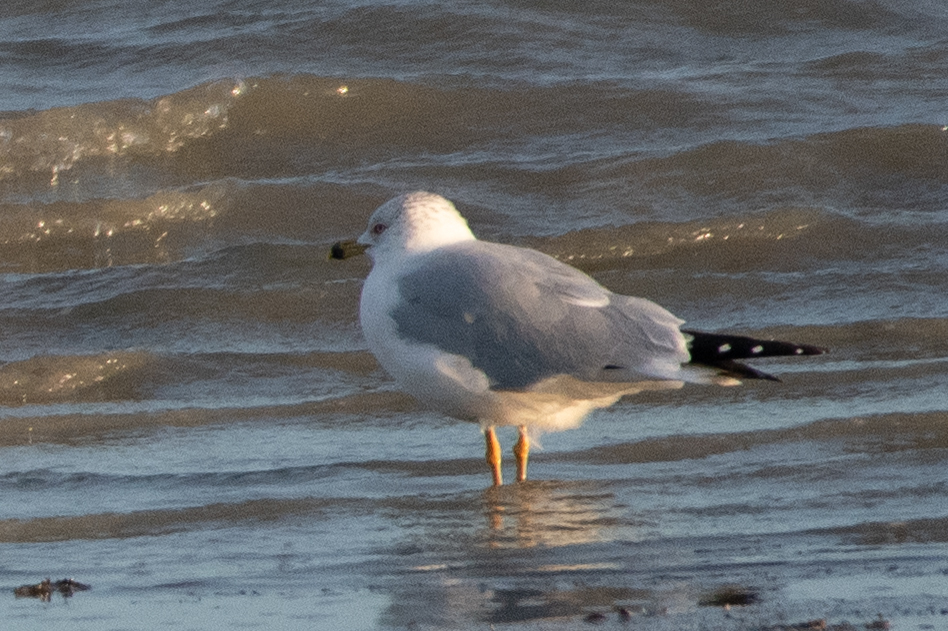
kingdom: Animalia
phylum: Chordata
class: Aves
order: Charadriiformes
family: Laridae
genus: Larus
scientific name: Larus delawarensis
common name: Ring-billed gull
